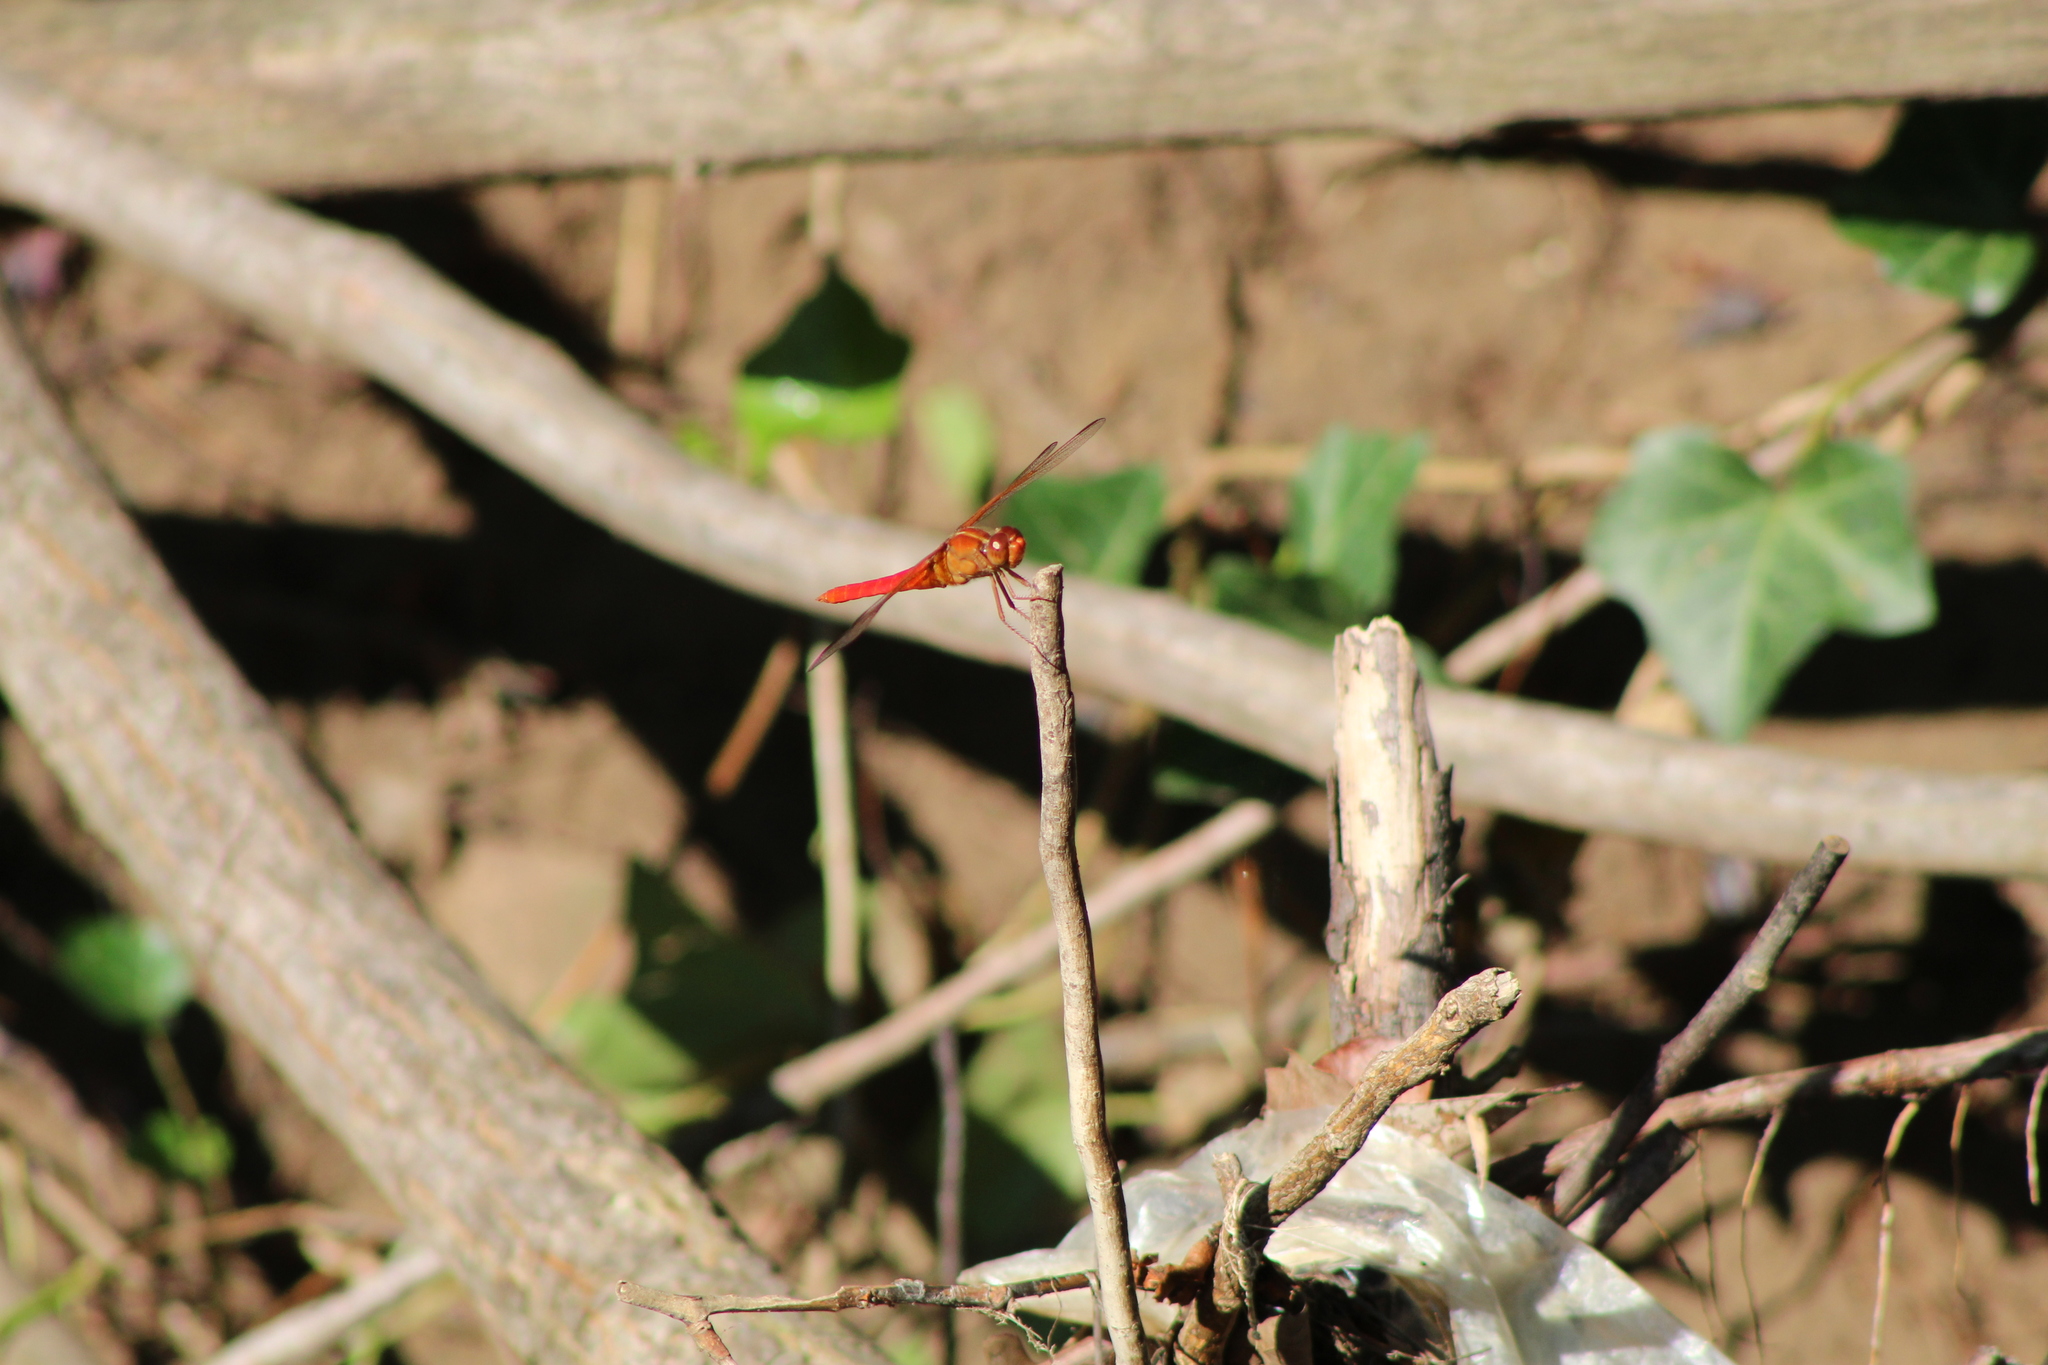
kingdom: Animalia
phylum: Arthropoda
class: Insecta
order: Odonata
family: Libellulidae
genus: Libellula
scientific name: Libellula croceipennis
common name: Neon skimmer
